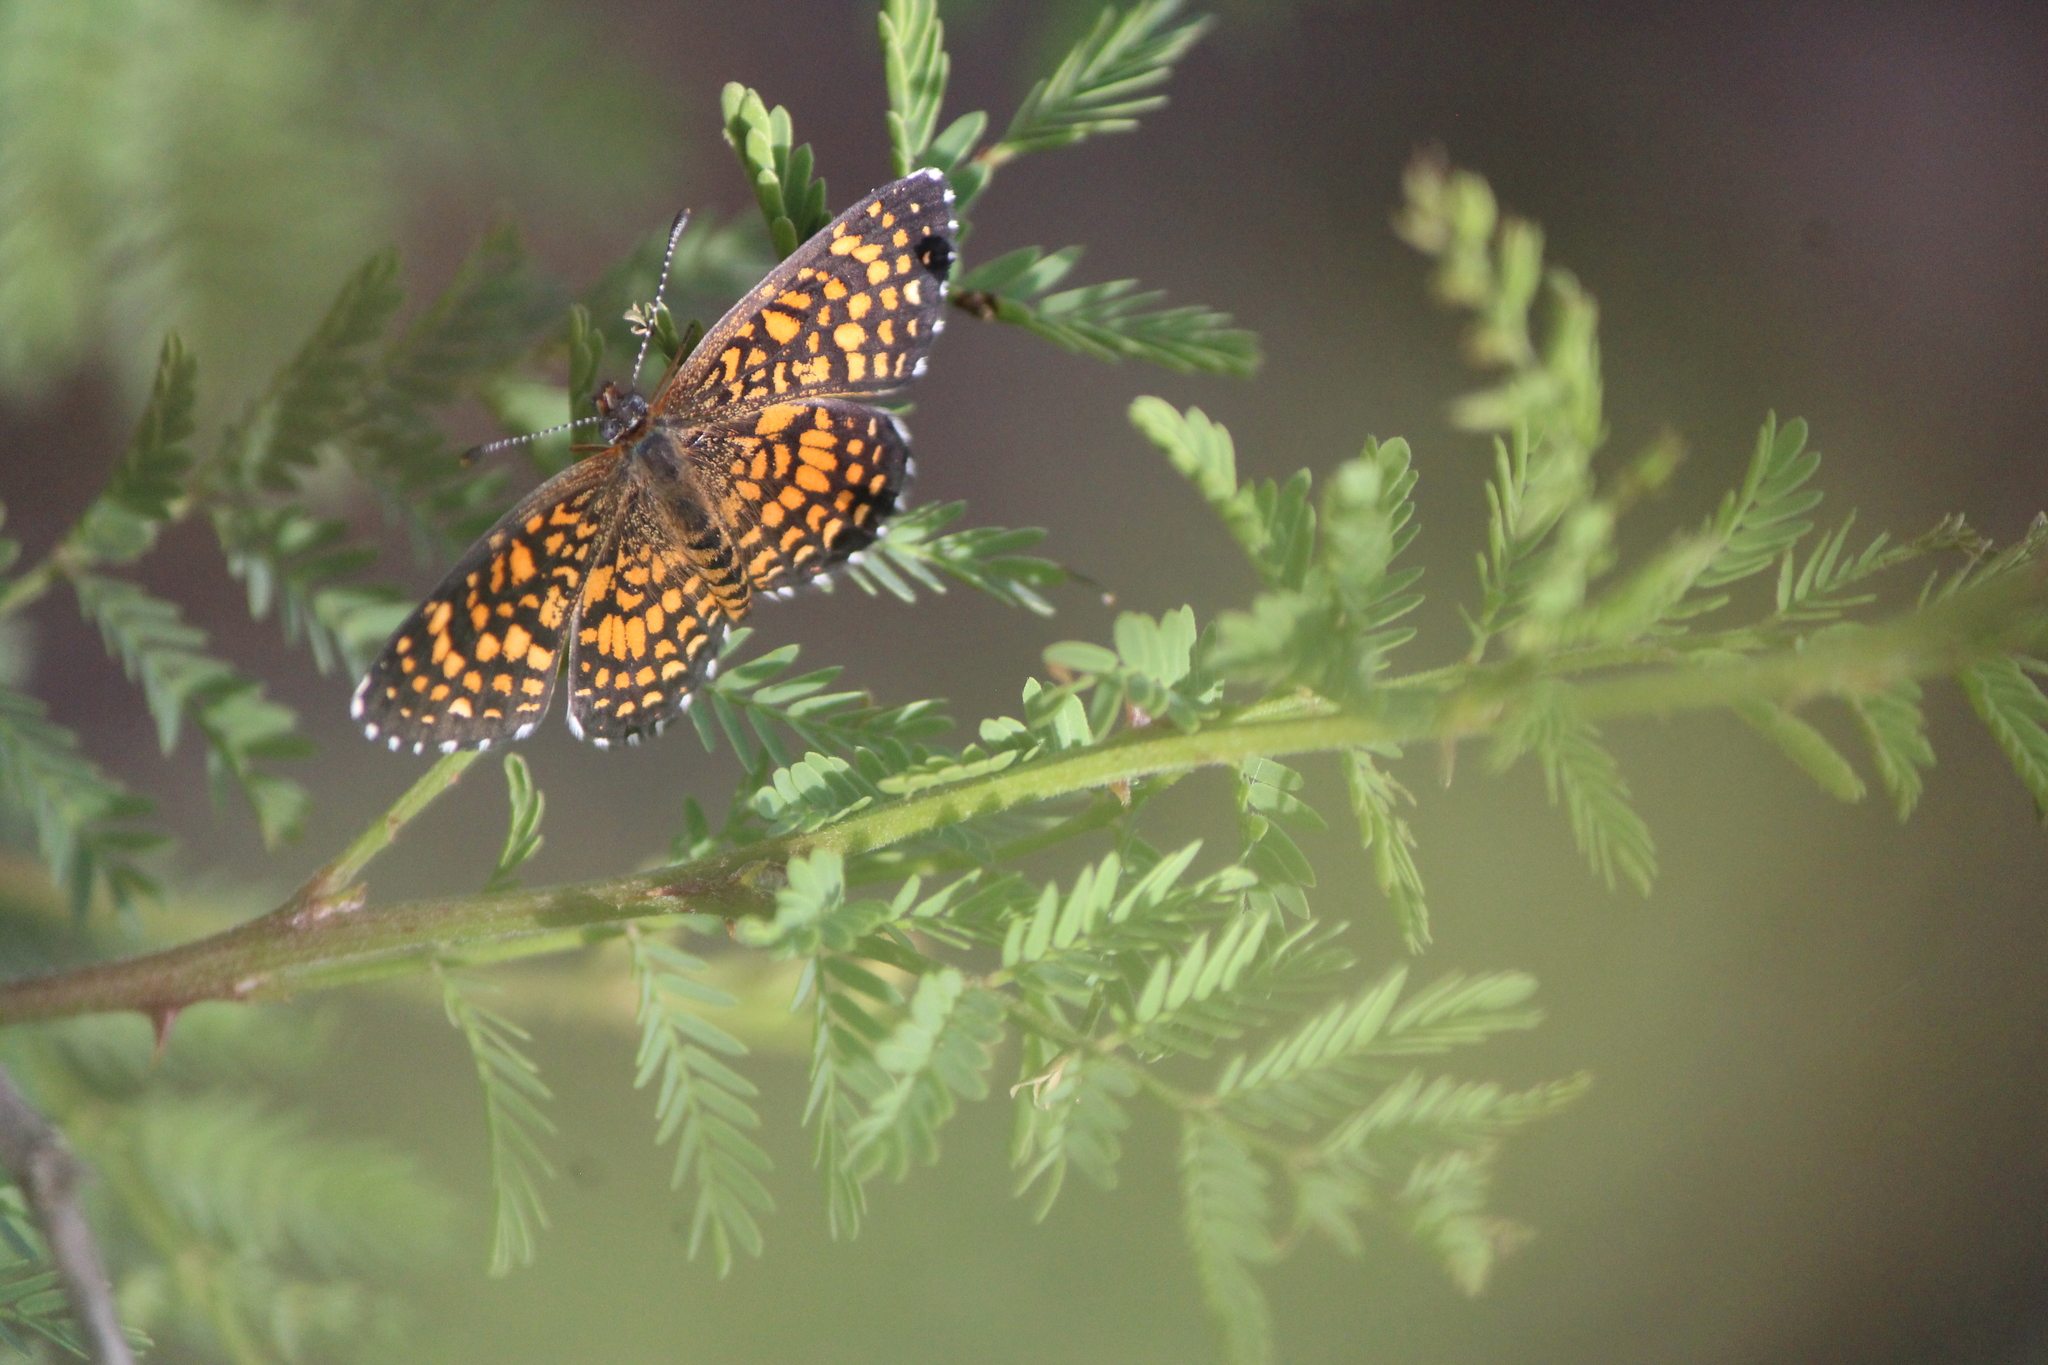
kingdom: Animalia
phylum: Arthropoda
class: Insecta
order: Lepidoptera
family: Nymphalidae
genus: Texola
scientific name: Texola elada
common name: Elada checkerspot
